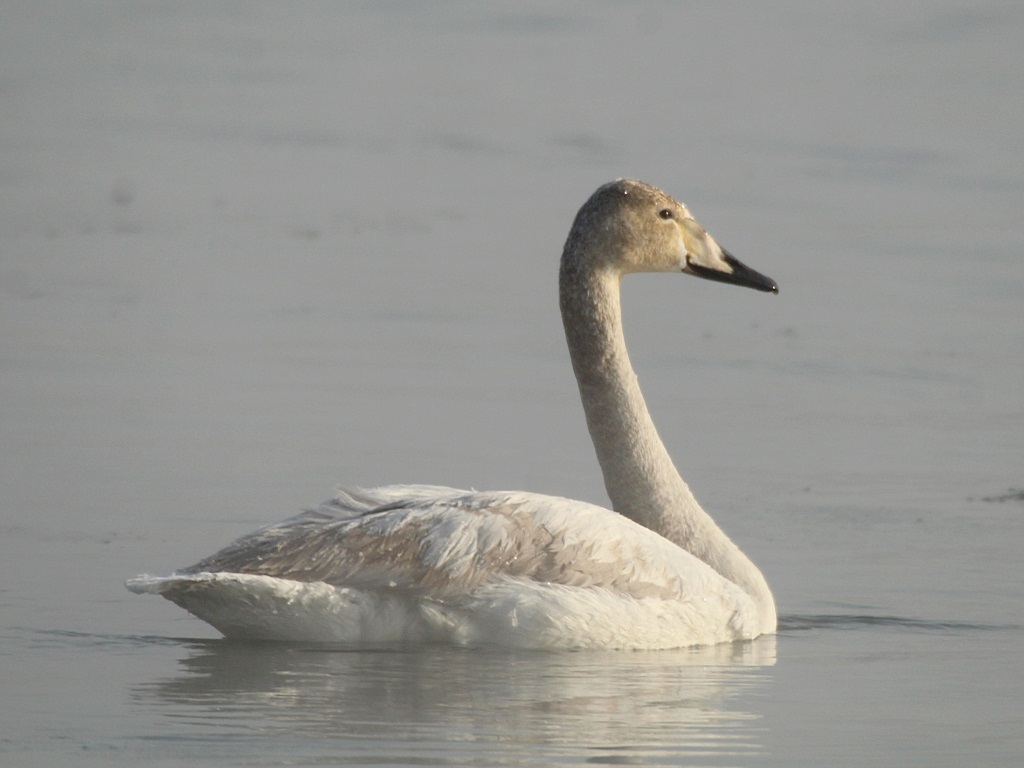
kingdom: Animalia
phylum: Chordata
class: Aves
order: Anseriformes
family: Anatidae
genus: Cygnus
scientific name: Cygnus cygnus
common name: Whooper swan
